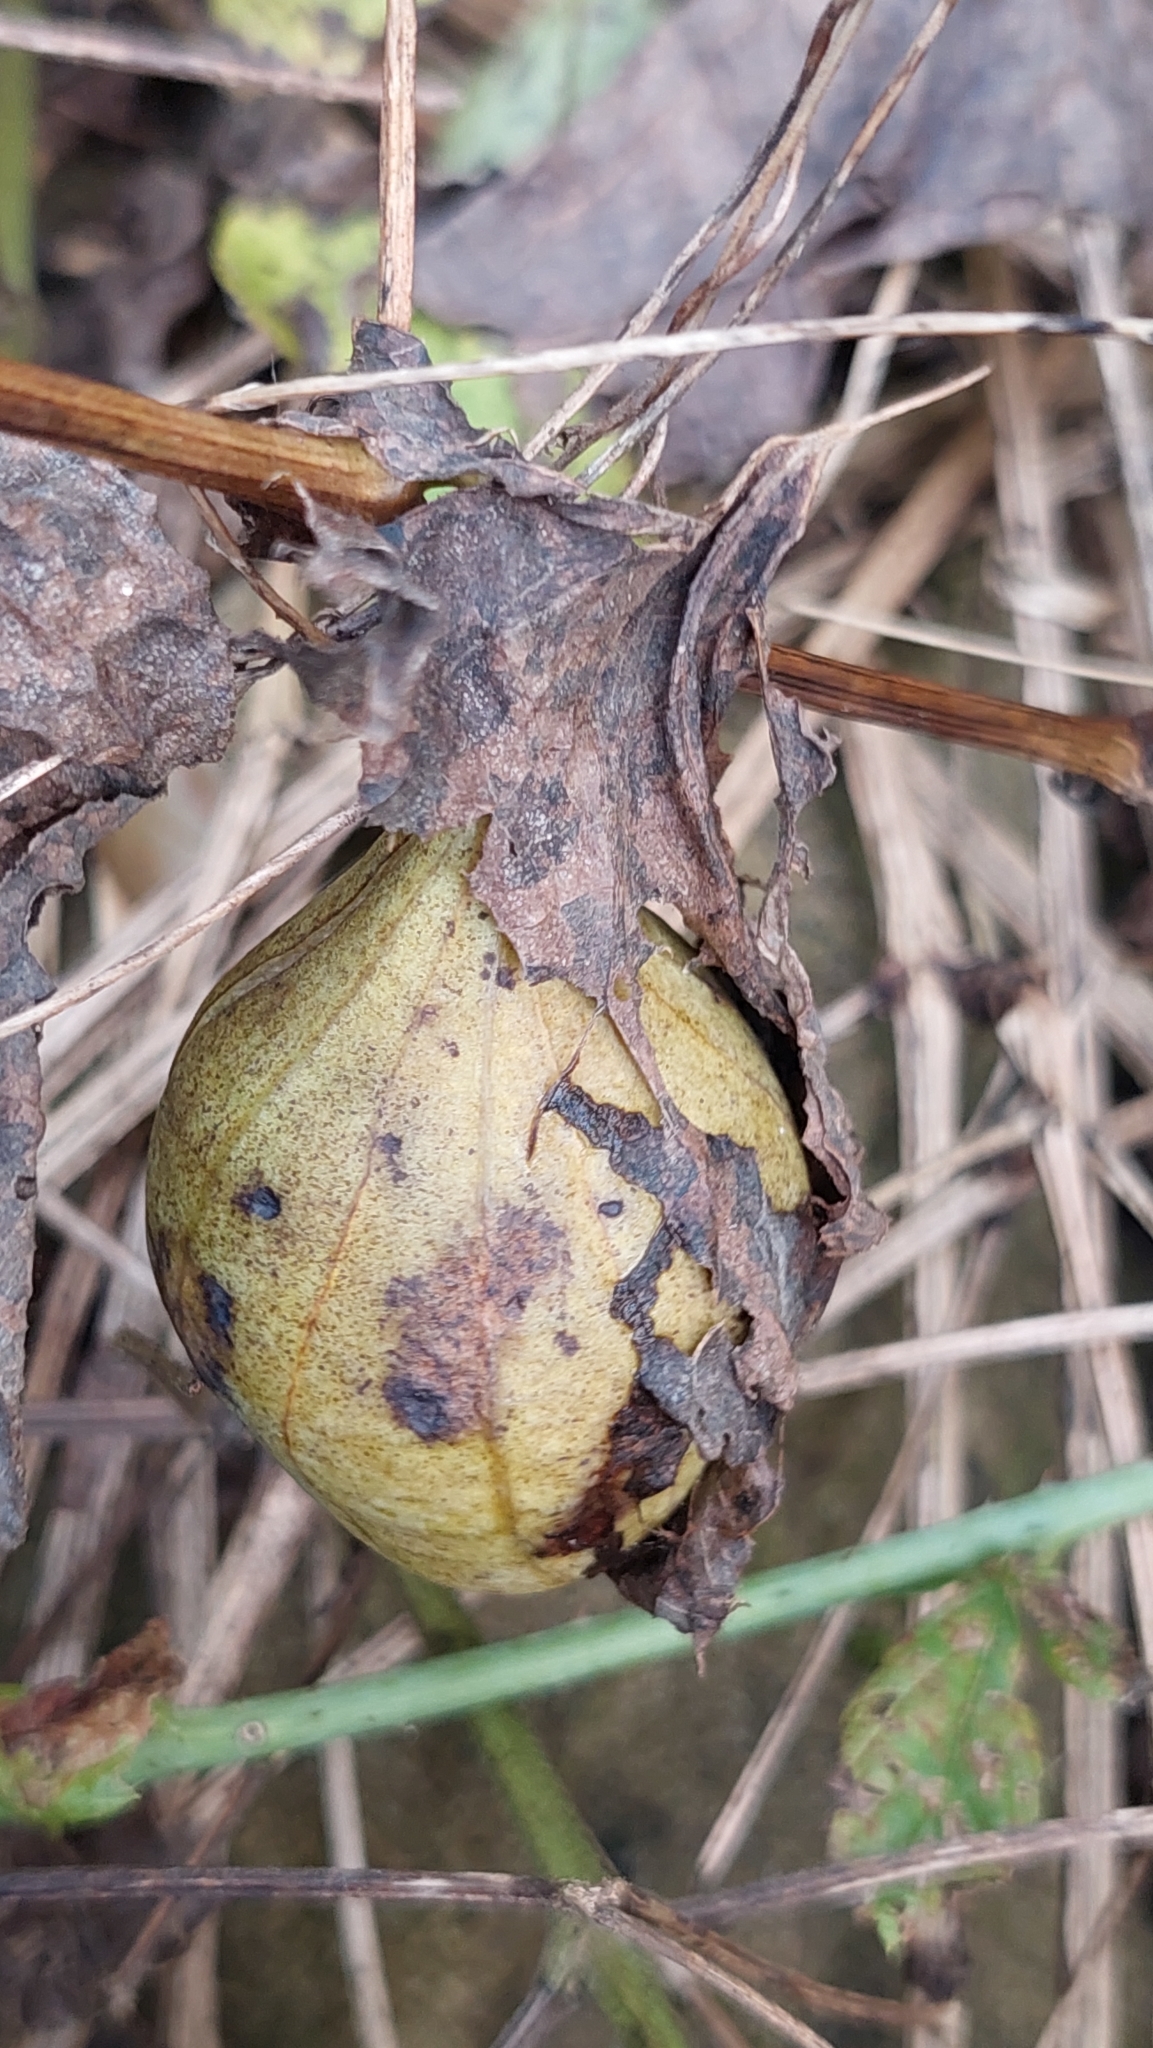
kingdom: Plantae
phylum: Tracheophyta
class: Magnoliopsida
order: Piperales
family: Aristolochiaceae
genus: Aristolochia
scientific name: Aristolochia clematitis
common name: Birthwort
